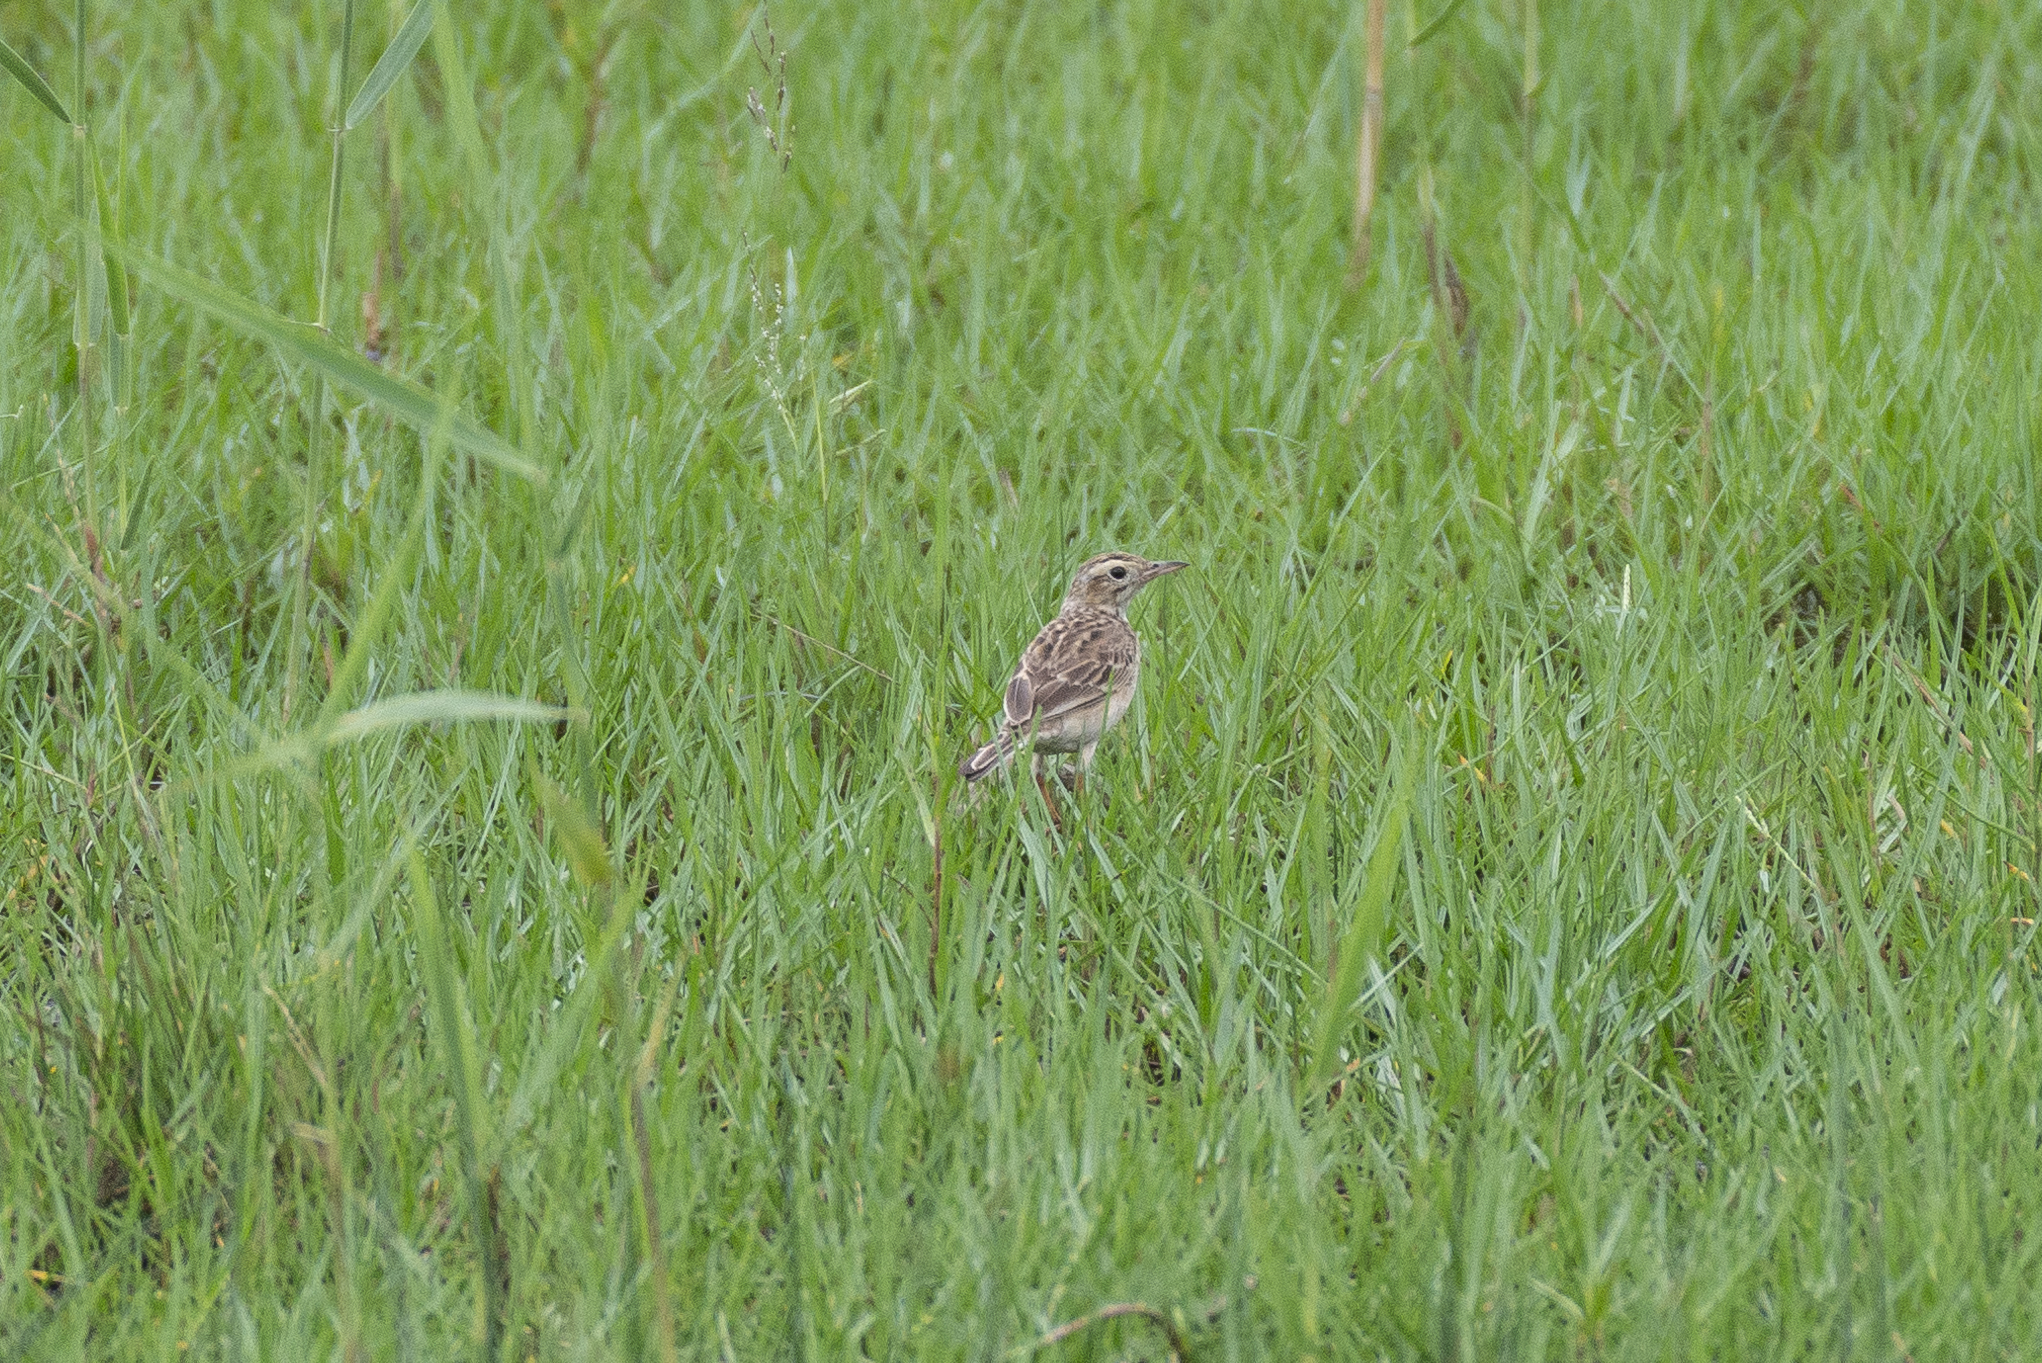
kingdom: Animalia
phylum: Chordata
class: Aves
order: Passeriformes
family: Motacillidae
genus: Anthus
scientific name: Anthus richardi
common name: Richard's pipit
